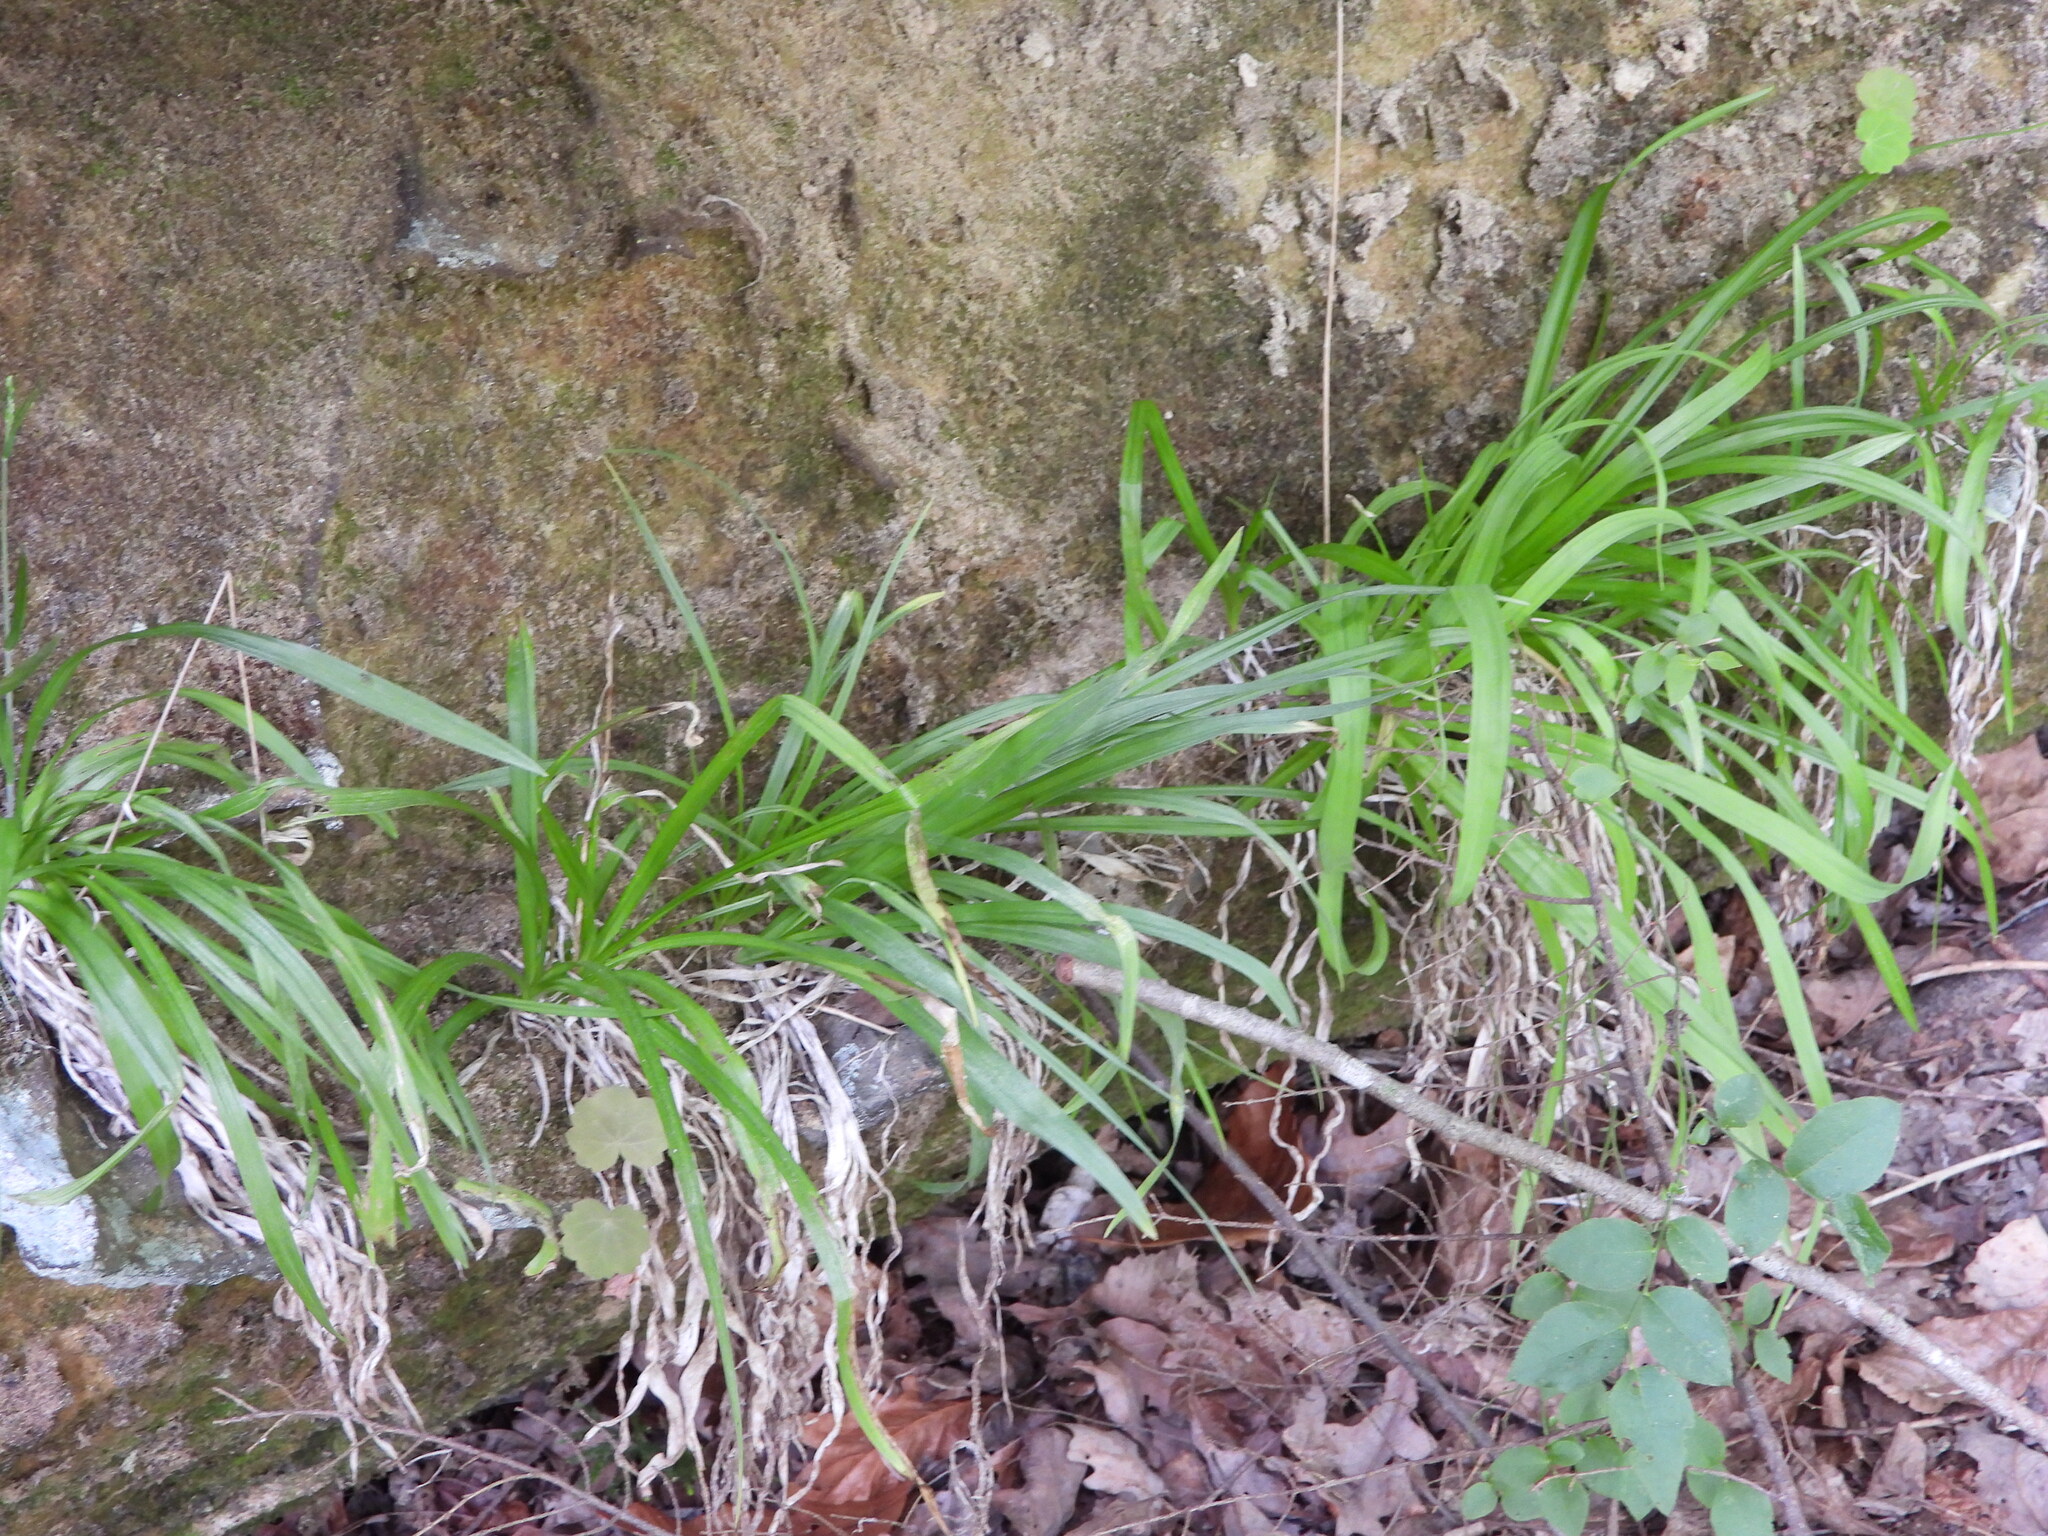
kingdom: Plantae
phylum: Tracheophyta
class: Liliopsida
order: Liliales
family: Melanthiaceae
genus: Stenanthium
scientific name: Stenanthium diffusum
